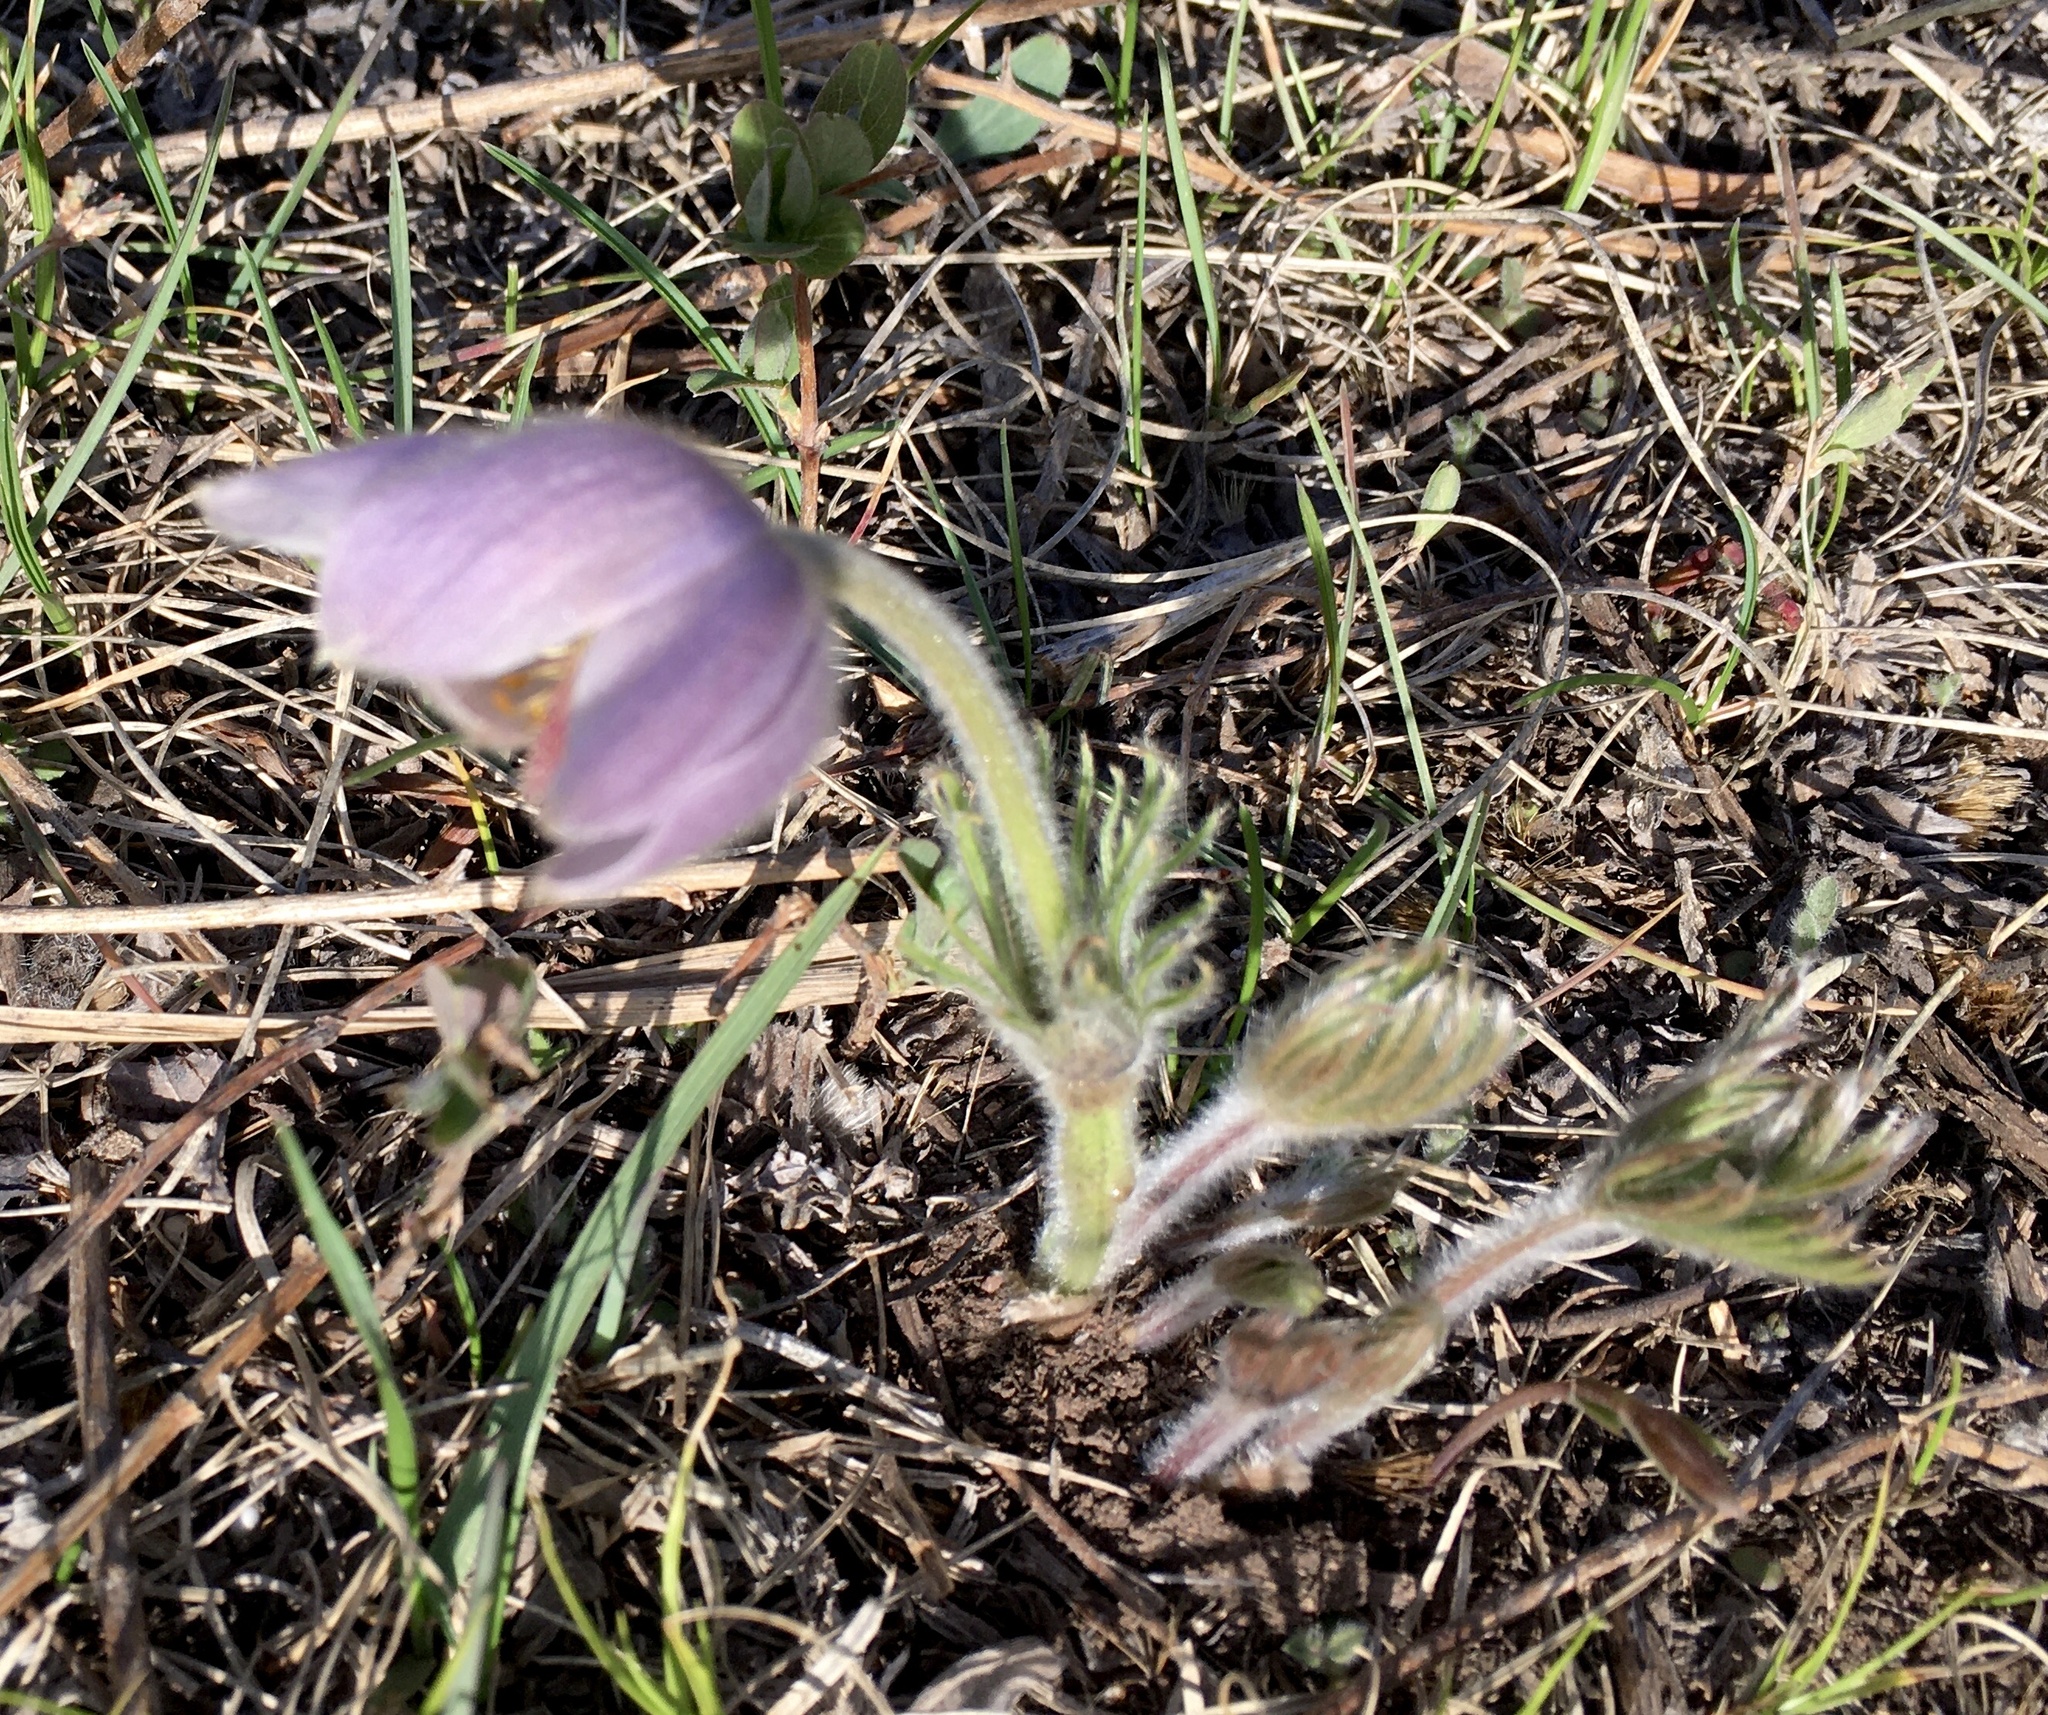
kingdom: Plantae
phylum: Tracheophyta
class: Magnoliopsida
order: Ranunculales
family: Ranunculaceae
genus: Pulsatilla
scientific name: Pulsatilla nuttalliana
